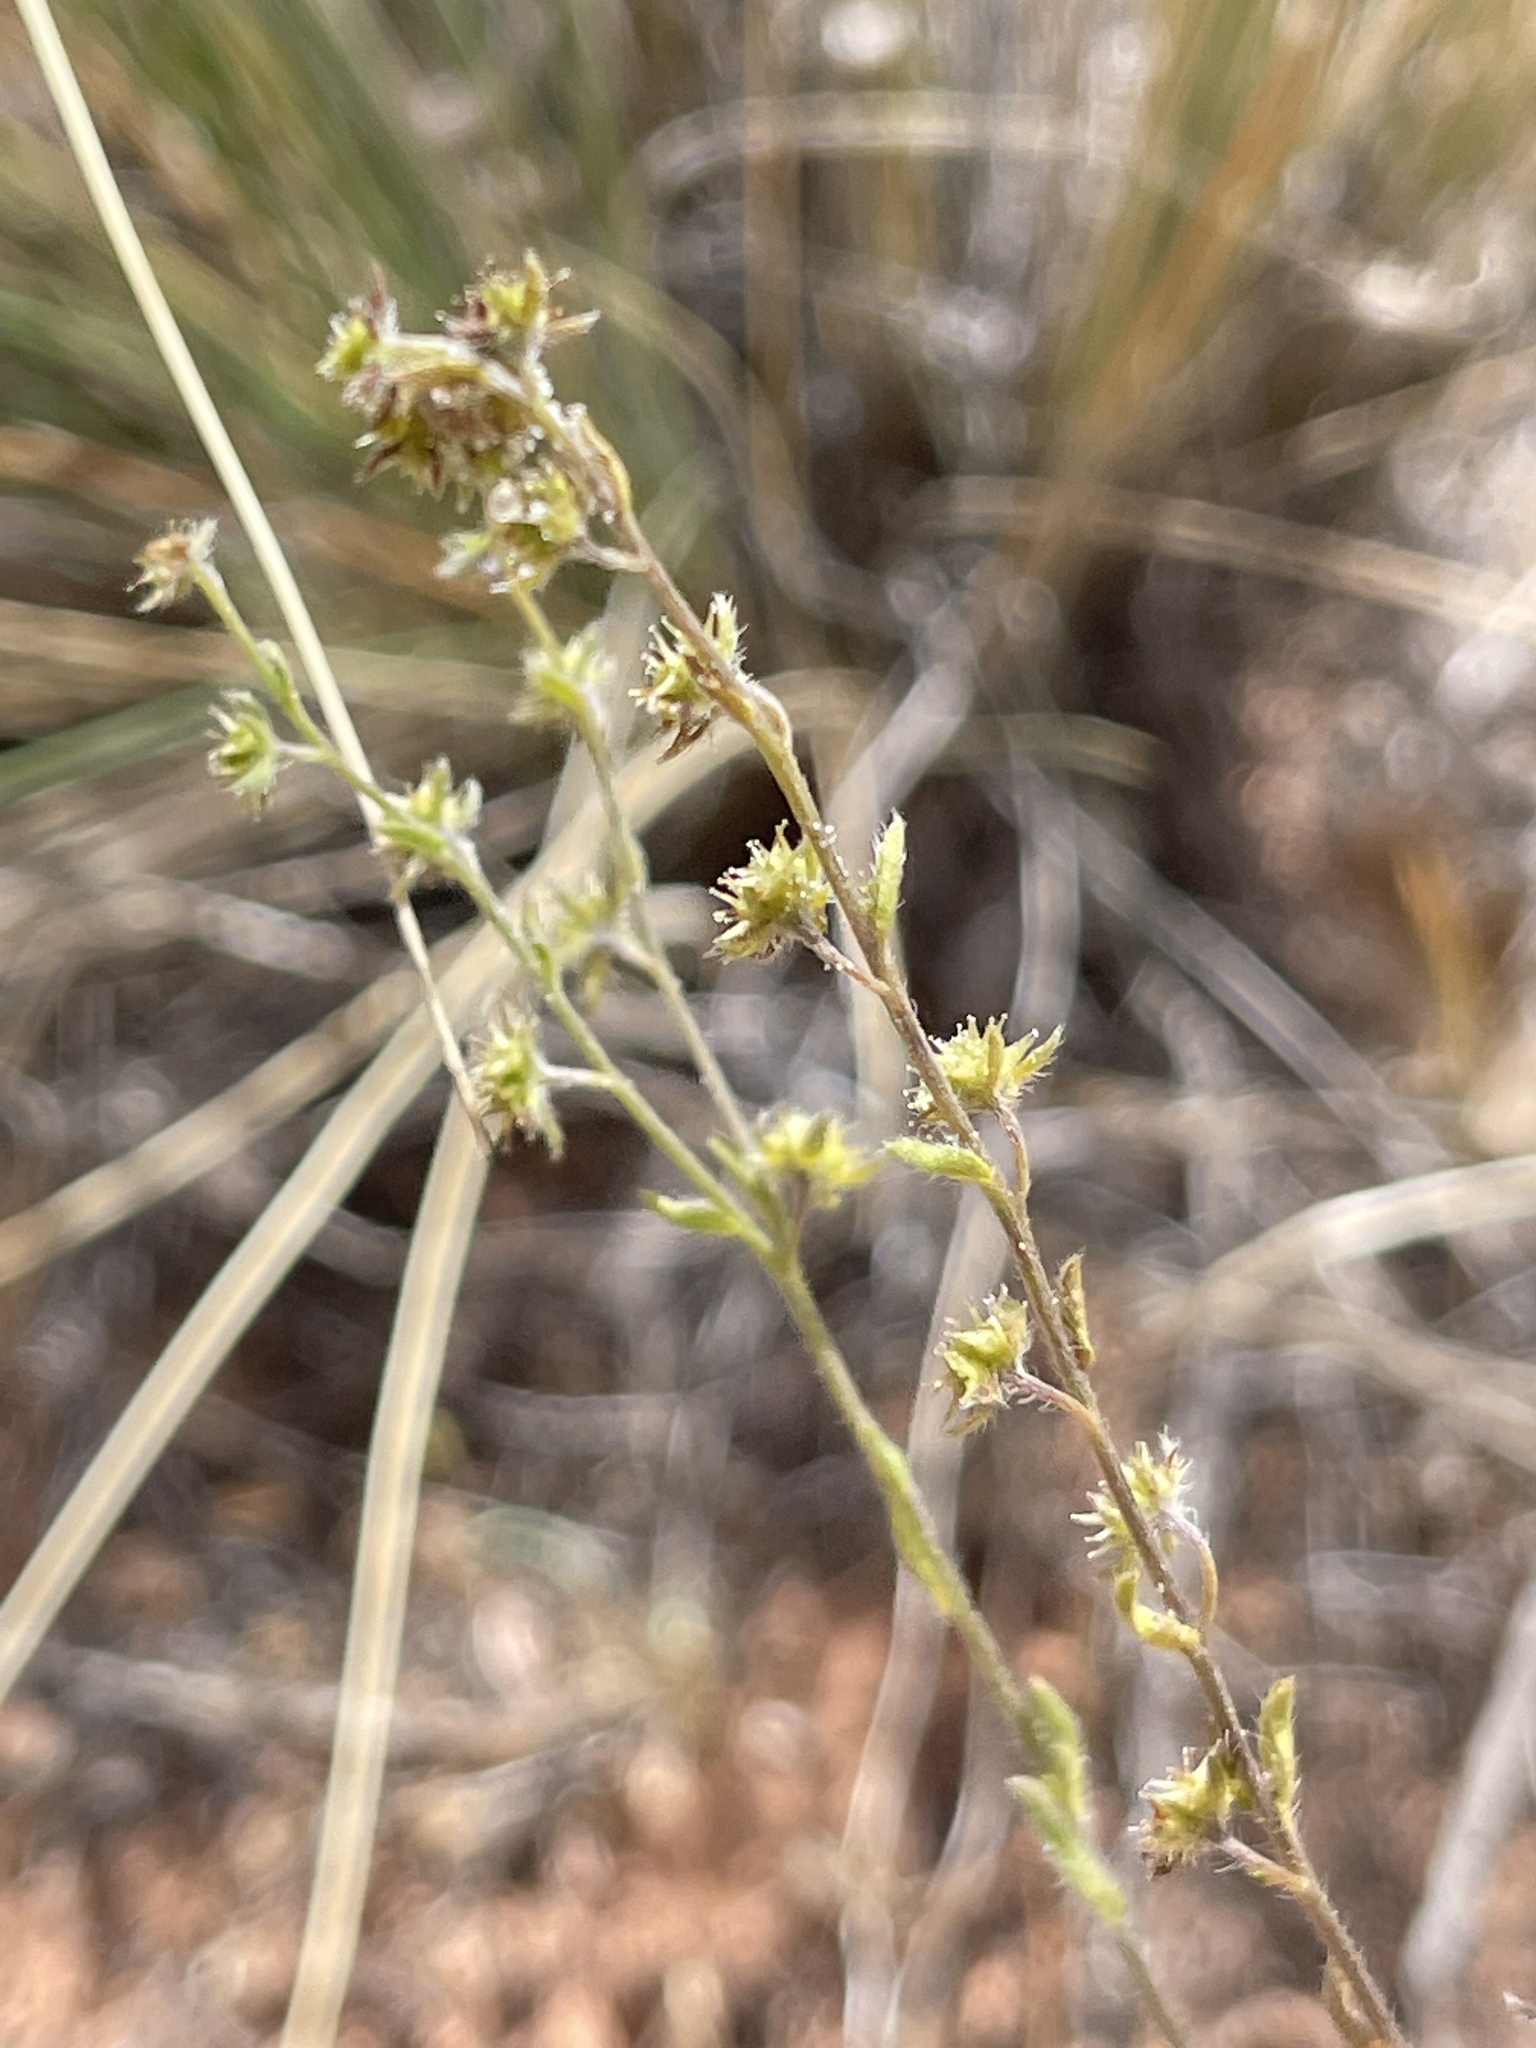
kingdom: Plantae
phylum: Tracheophyta
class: Magnoliopsida
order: Boraginales
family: Boraginaceae
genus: Lappula
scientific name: Lappula occidentalis
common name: Western stickseed
